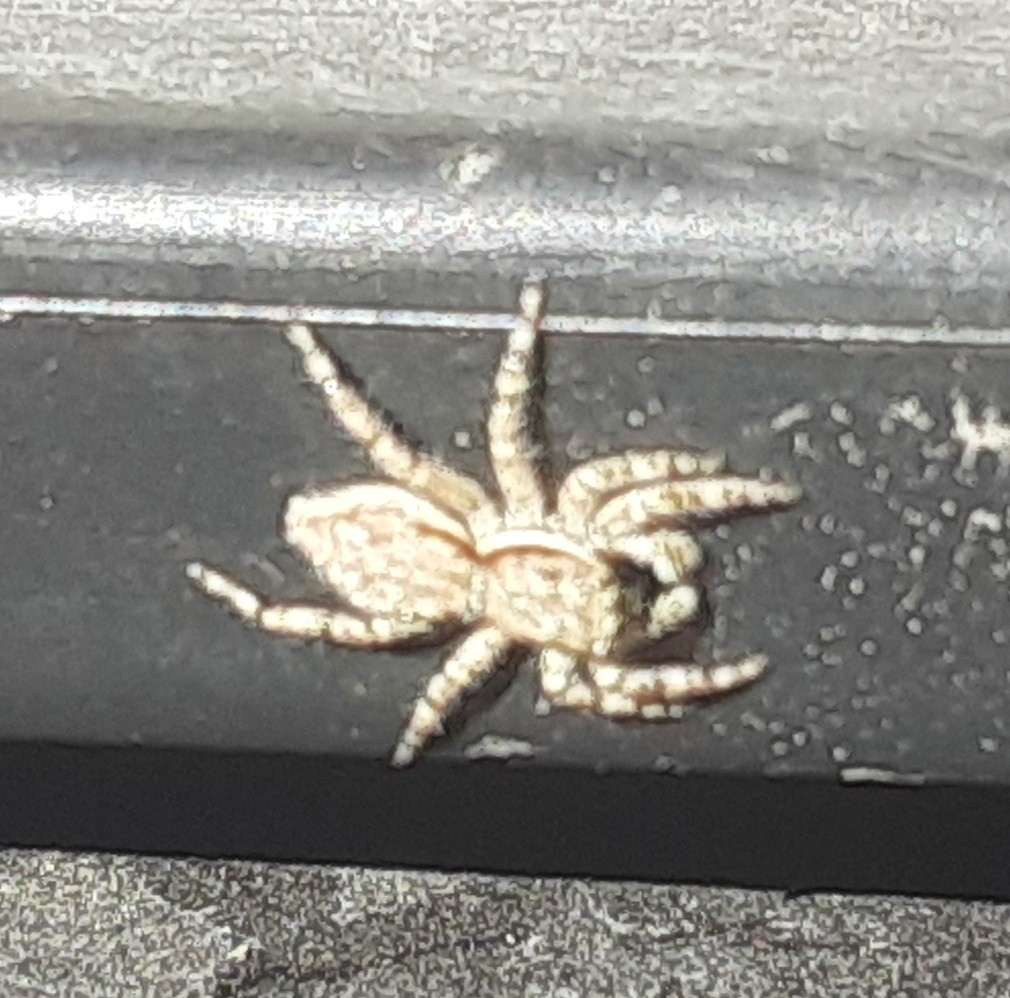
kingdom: Animalia
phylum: Arthropoda
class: Arachnida
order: Araneae
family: Salticidae
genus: Menemerus
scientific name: Menemerus bivittatus
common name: Gray wall jumper
